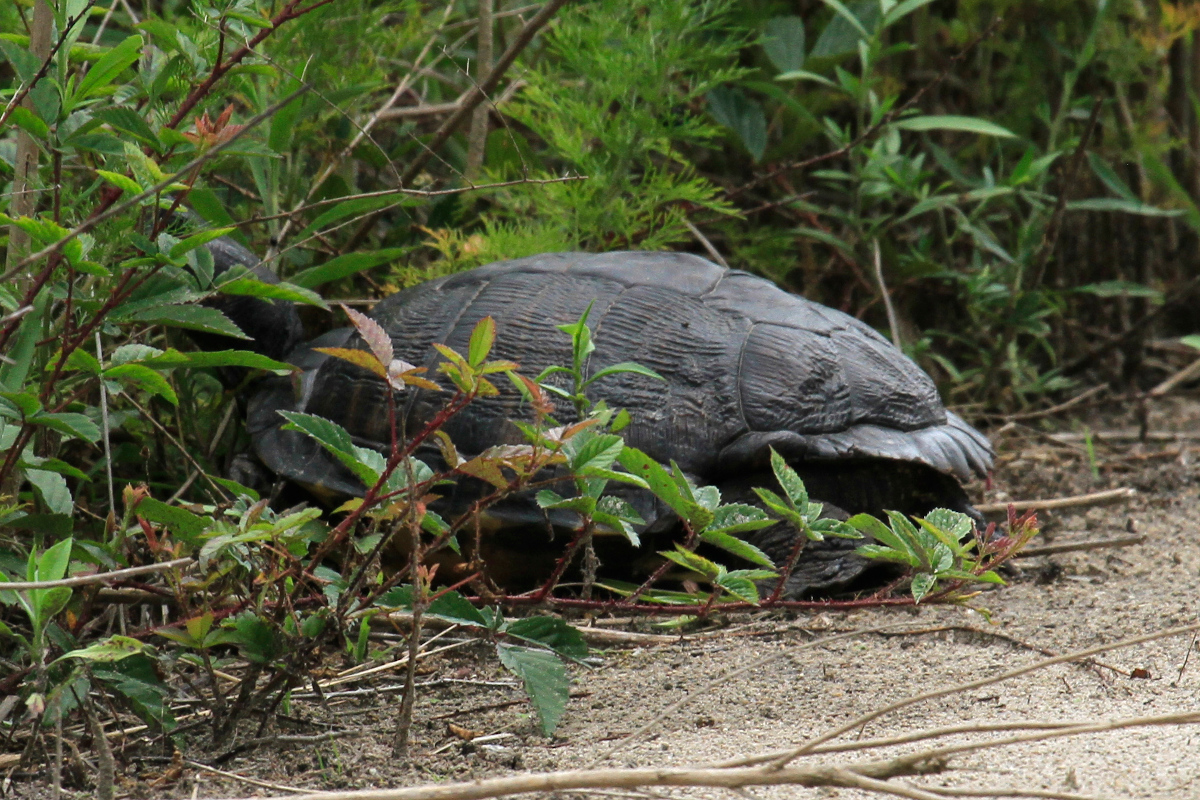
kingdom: Animalia
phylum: Chordata
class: Testudines
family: Emydidae
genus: Trachemys
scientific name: Trachemys scripta
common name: Slider
